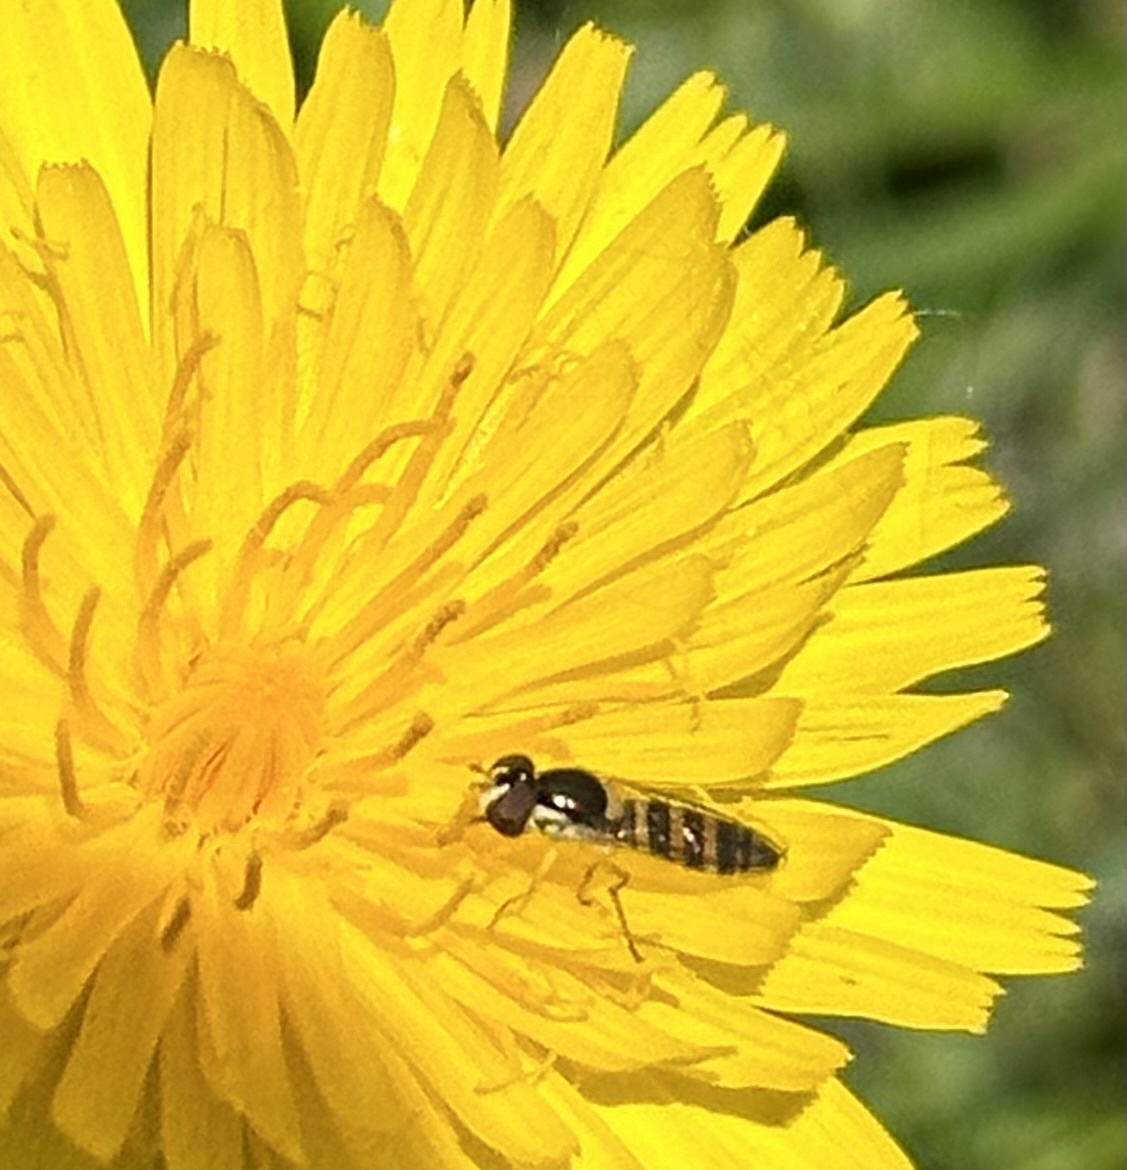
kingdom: Animalia
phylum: Arthropoda
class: Insecta
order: Diptera
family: Syrphidae
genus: Sphaerophoria
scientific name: Sphaerophoria contigua
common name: Tufted globetail
